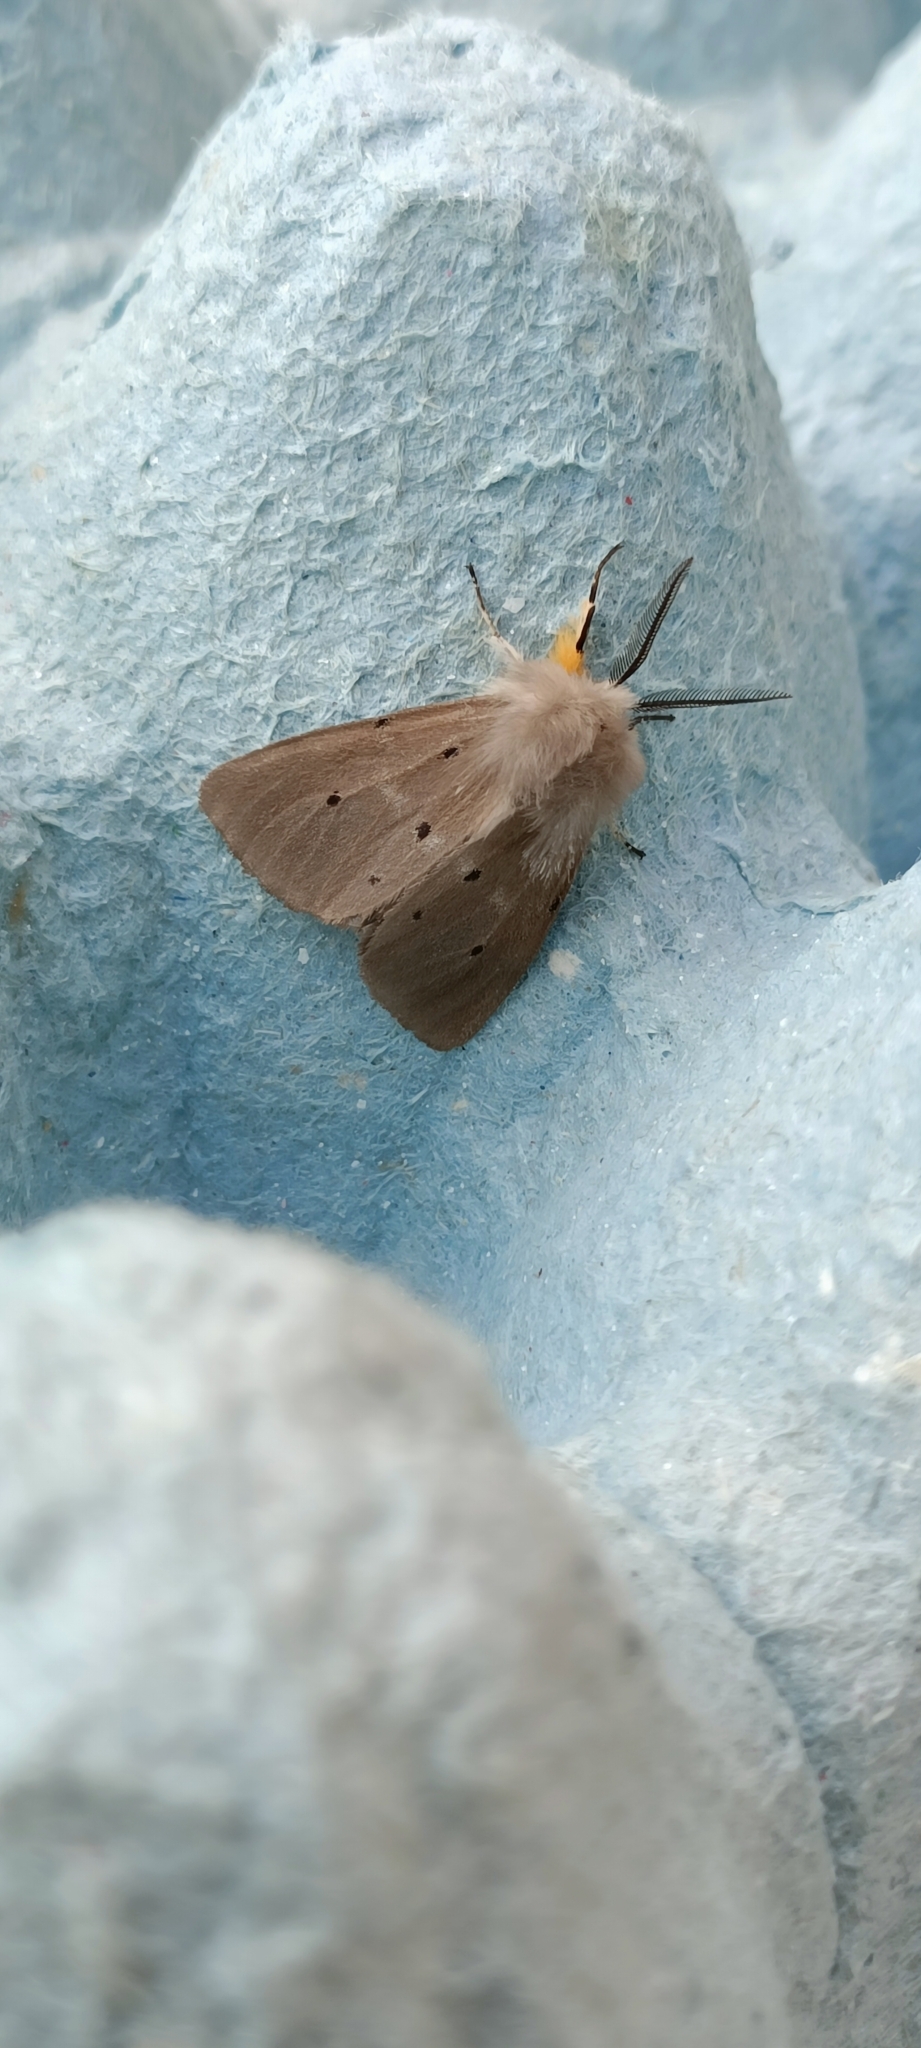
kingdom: Animalia
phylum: Arthropoda
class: Insecta
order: Lepidoptera
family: Erebidae
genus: Diaphora
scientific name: Diaphora mendica
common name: Muslin moth
